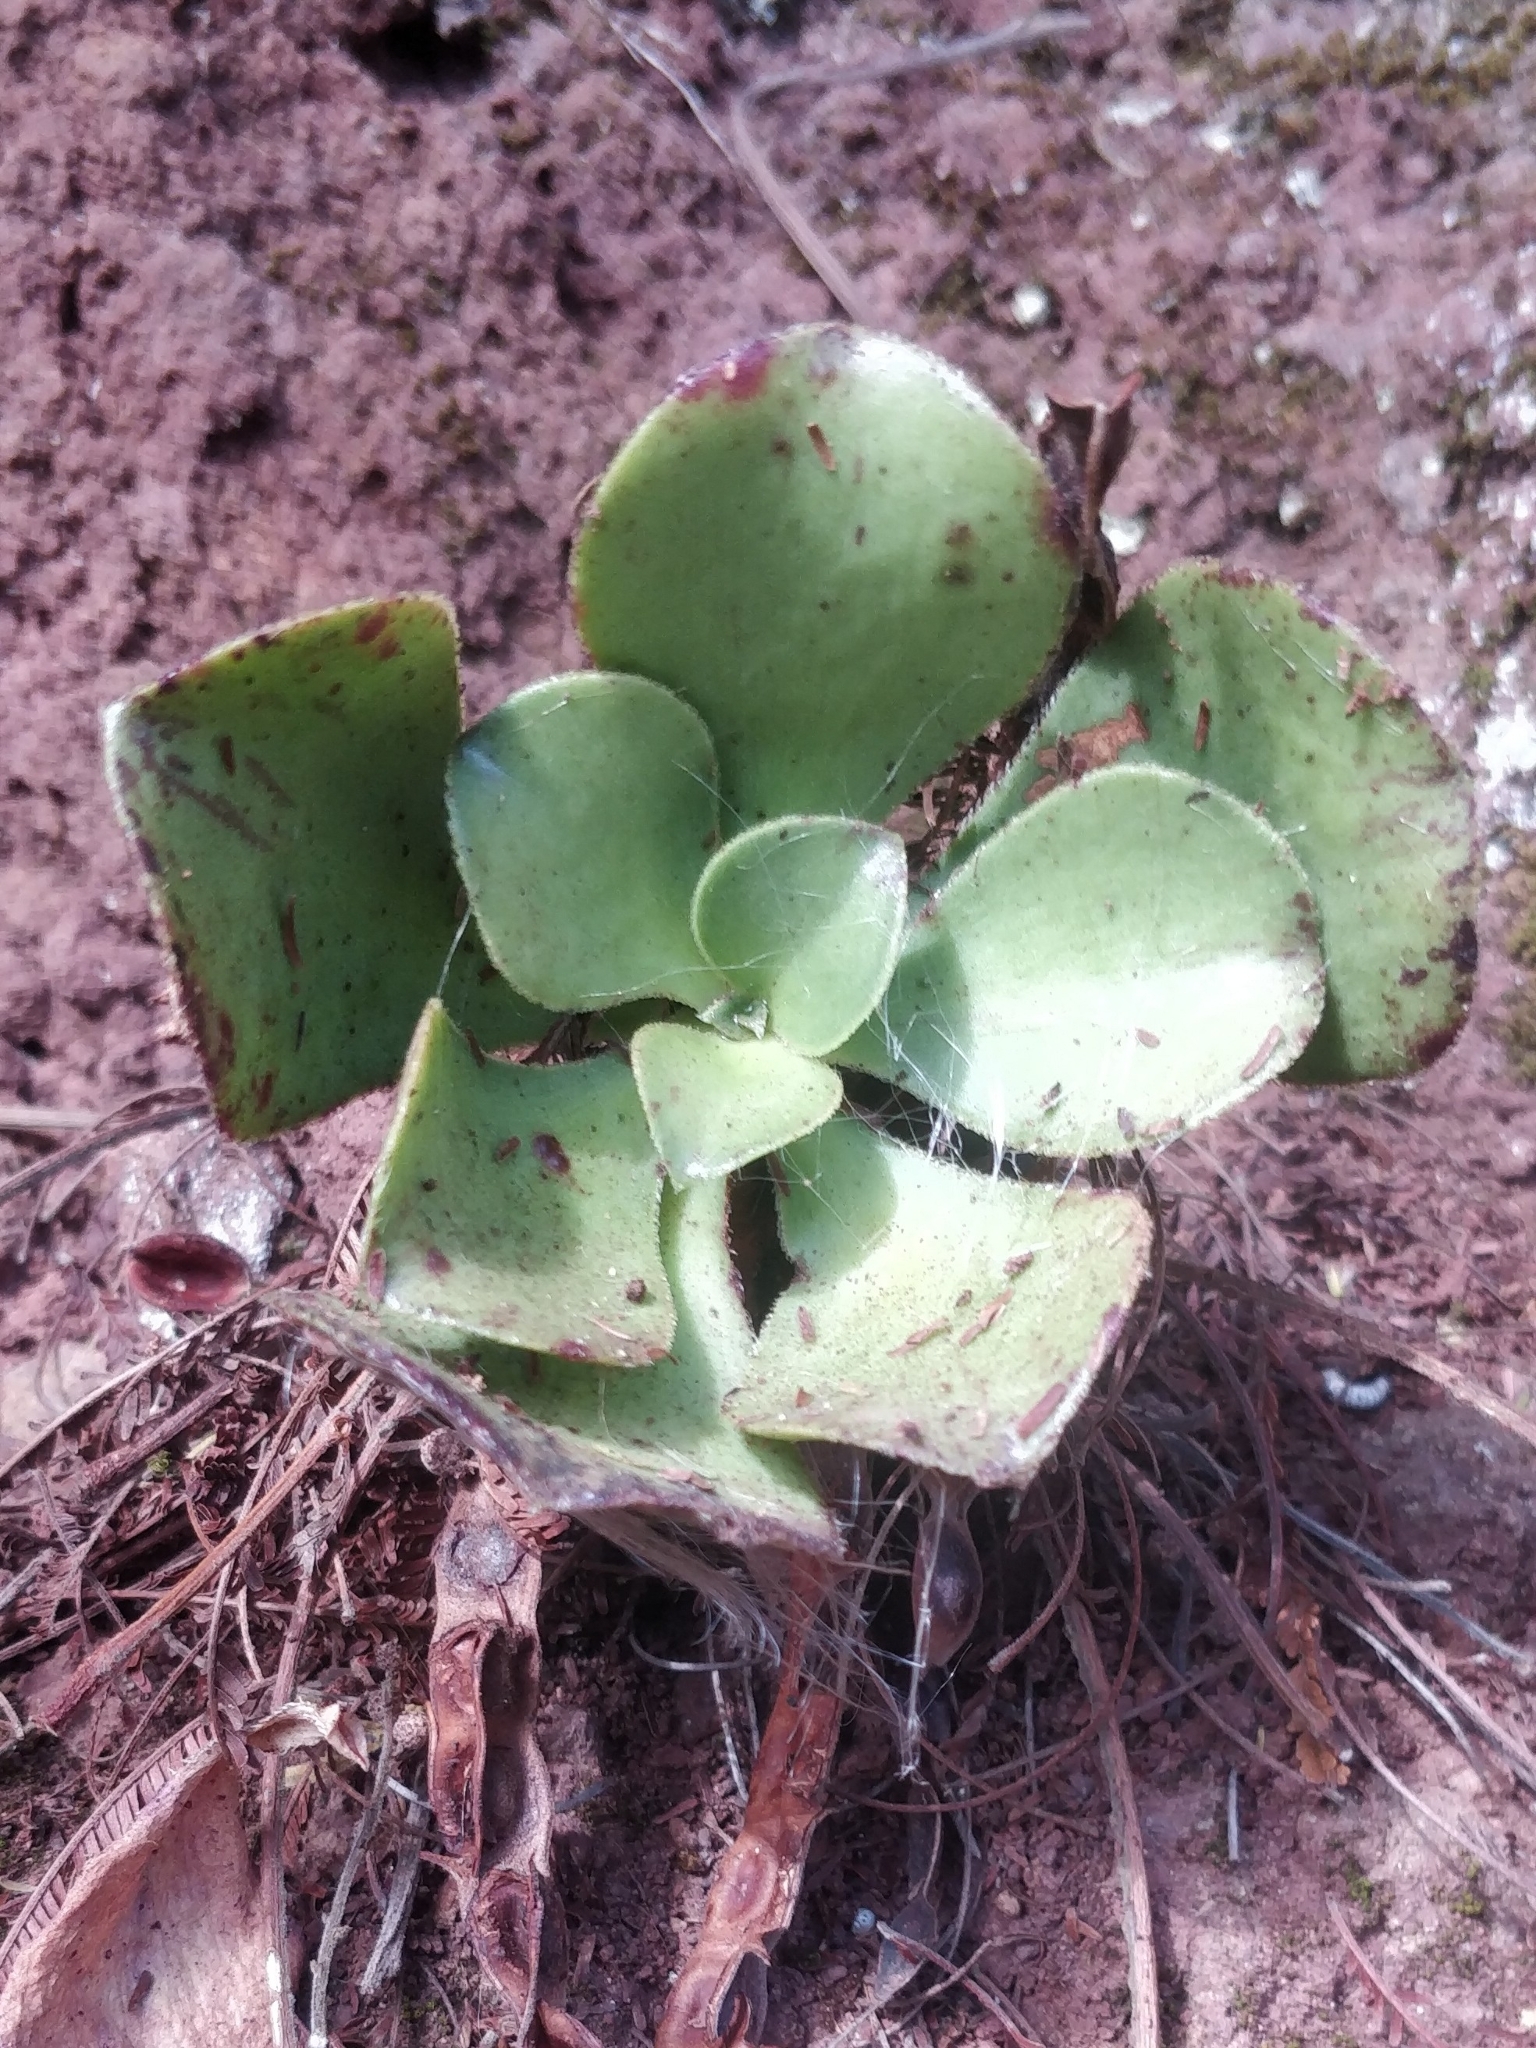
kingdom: Plantae
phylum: Tracheophyta
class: Magnoliopsida
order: Saxifragales
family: Crassulaceae
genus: Aeonium
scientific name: Aeonium glutinosum
